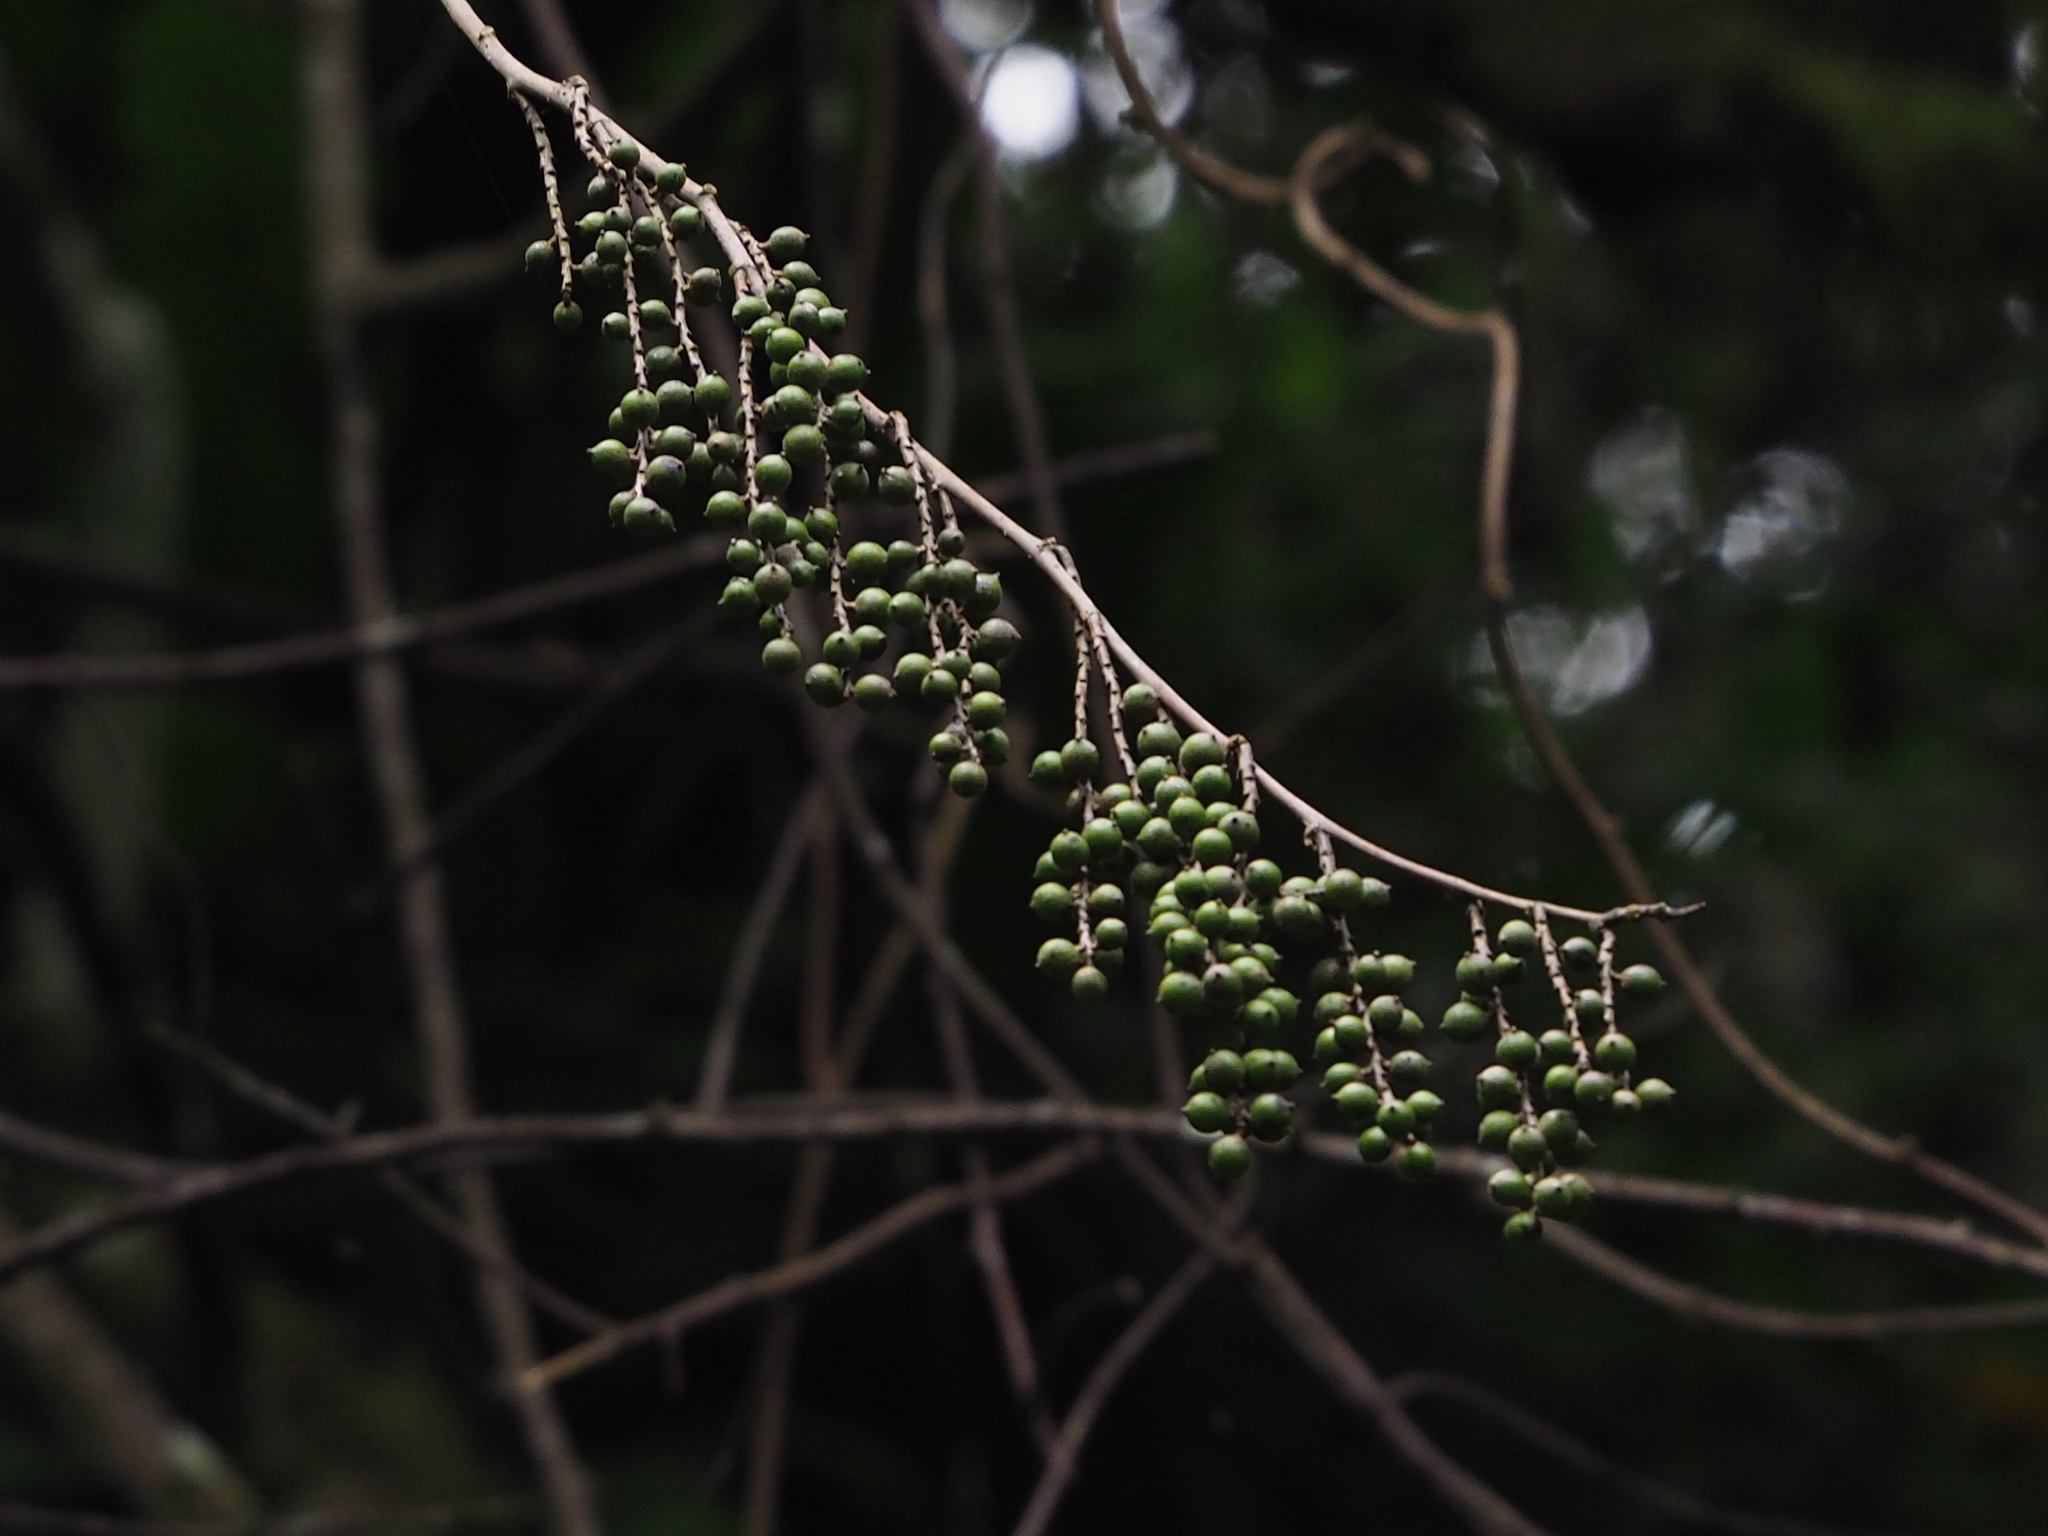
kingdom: Plantae
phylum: Tracheophyta
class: Magnoliopsida
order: Crossosomatales
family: Stachyuraceae
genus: Stachyurus
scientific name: Stachyurus himalaicus
